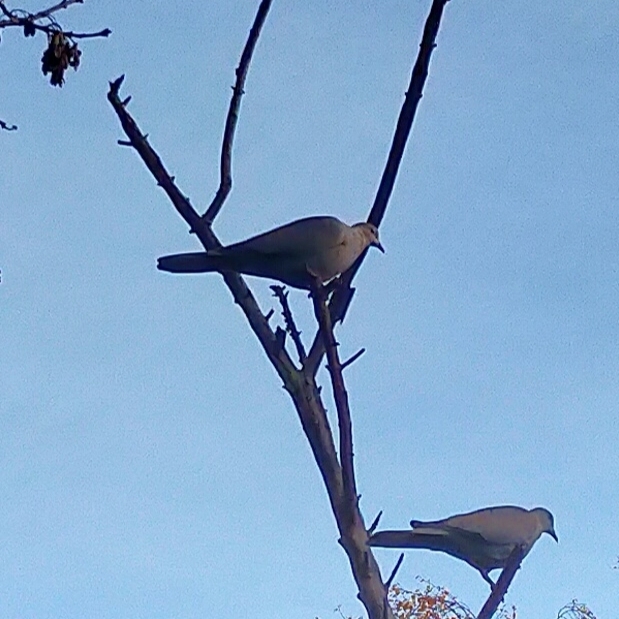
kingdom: Animalia
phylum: Chordata
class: Aves
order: Columbiformes
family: Columbidae
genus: Streptopelia
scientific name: Streptopelia decaocto
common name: Eurasian collared dove
